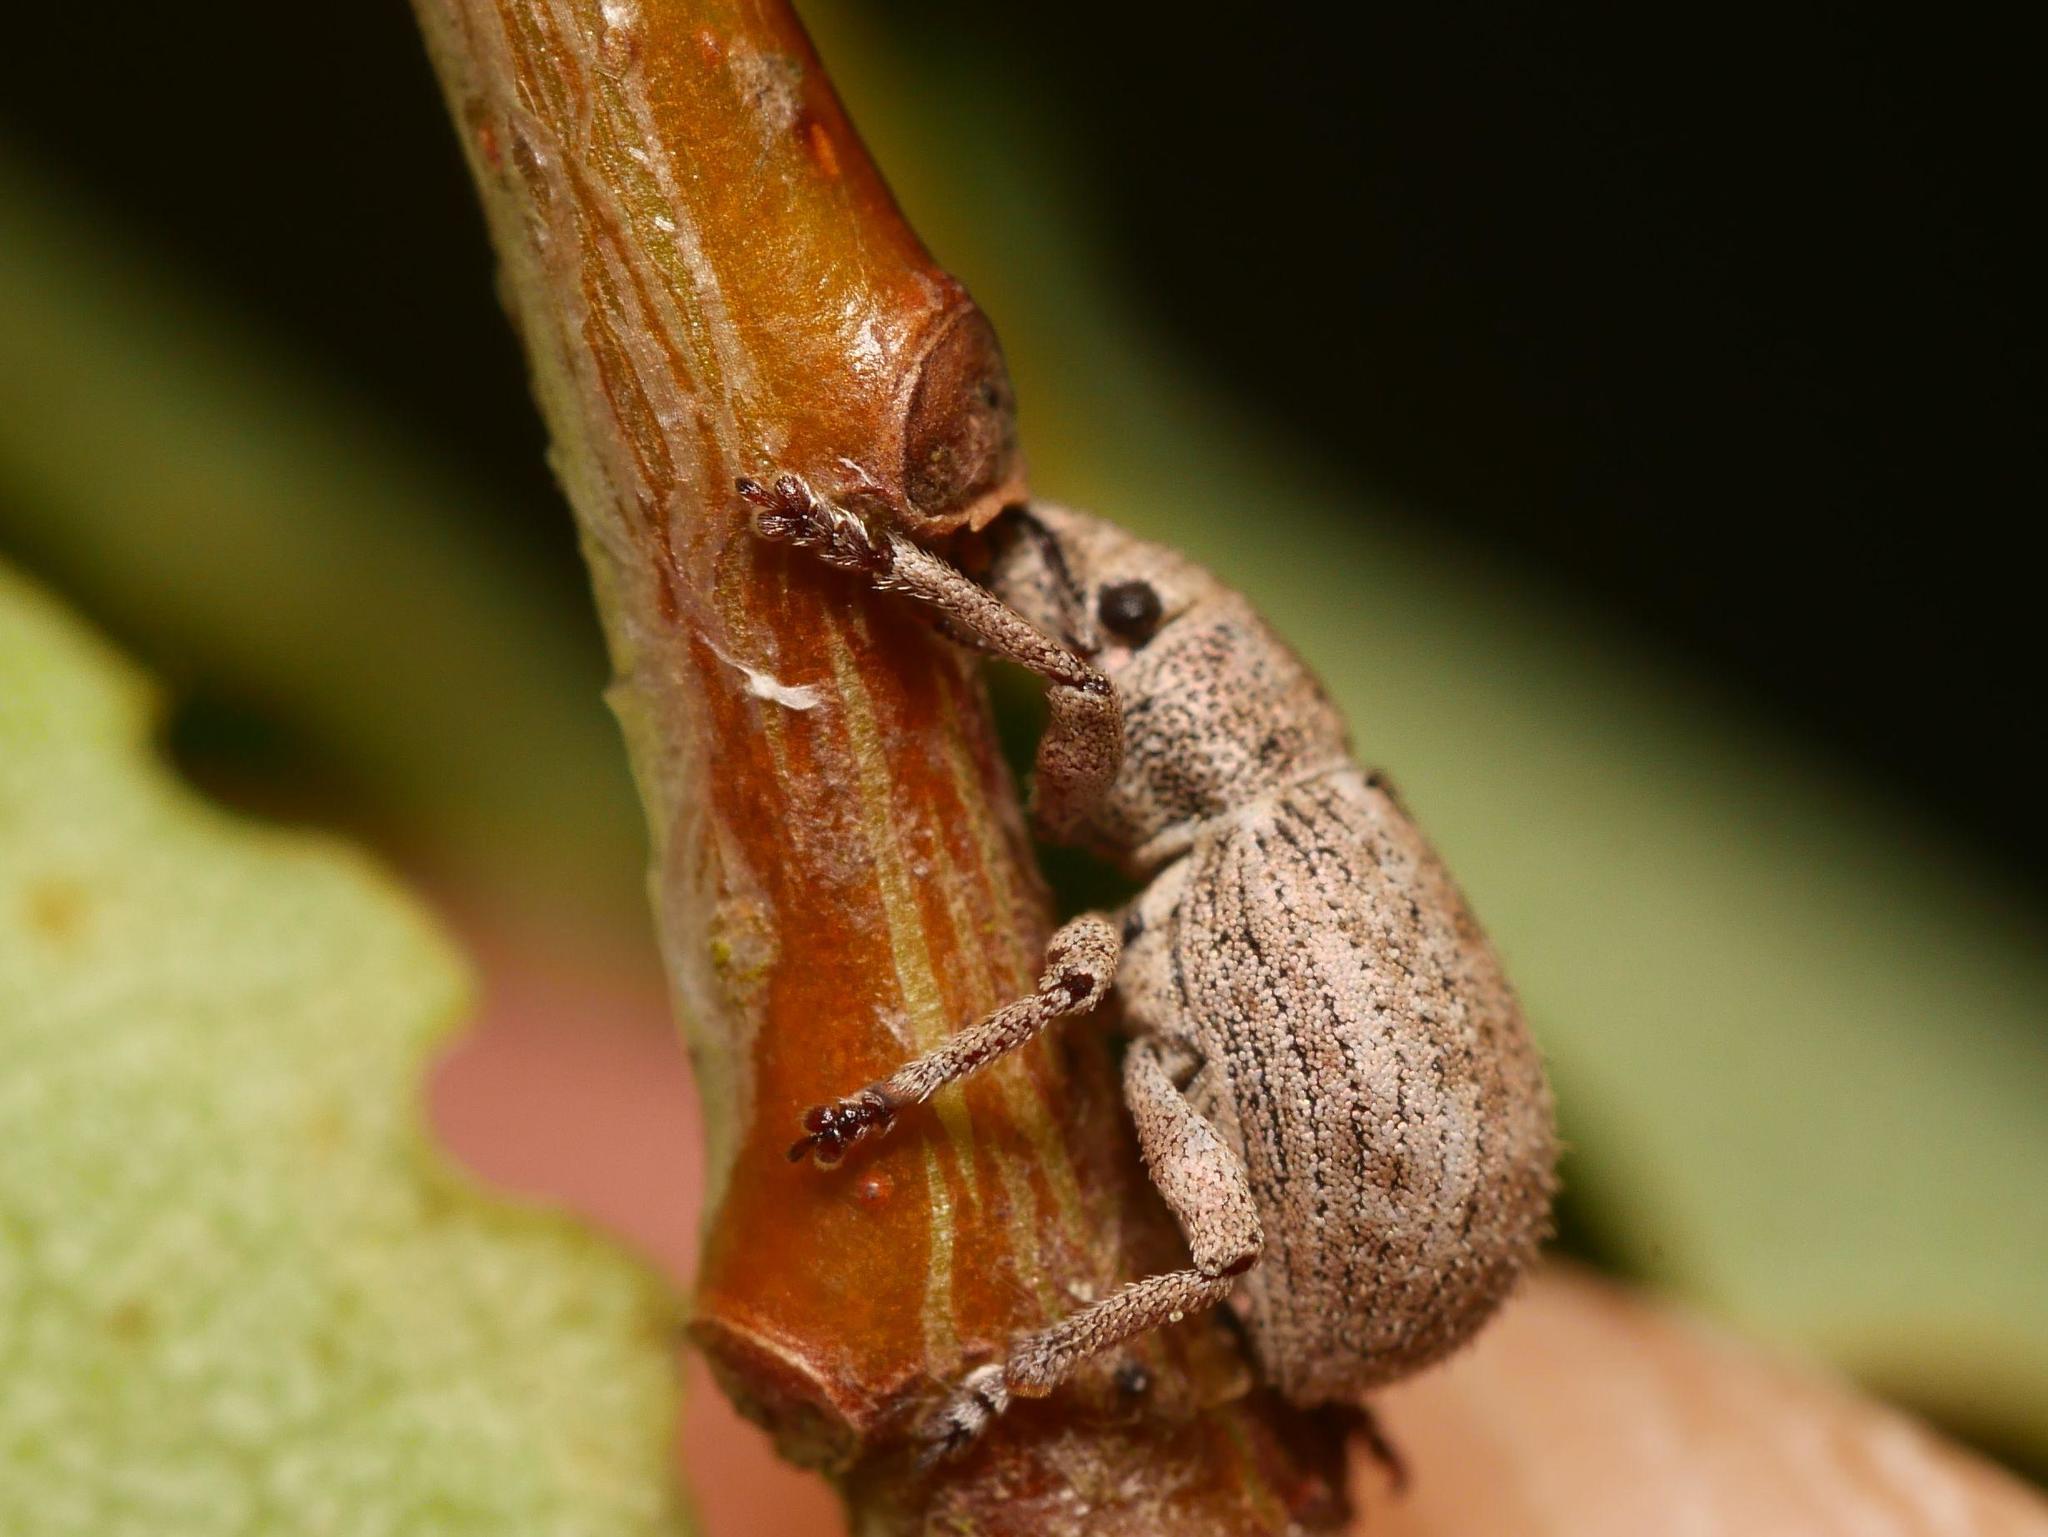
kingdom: Animalia
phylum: Arthropoda
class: Insecta
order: Coleoptera
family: Curculionidae
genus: Strophosoma
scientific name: Strophosoma capitatum
